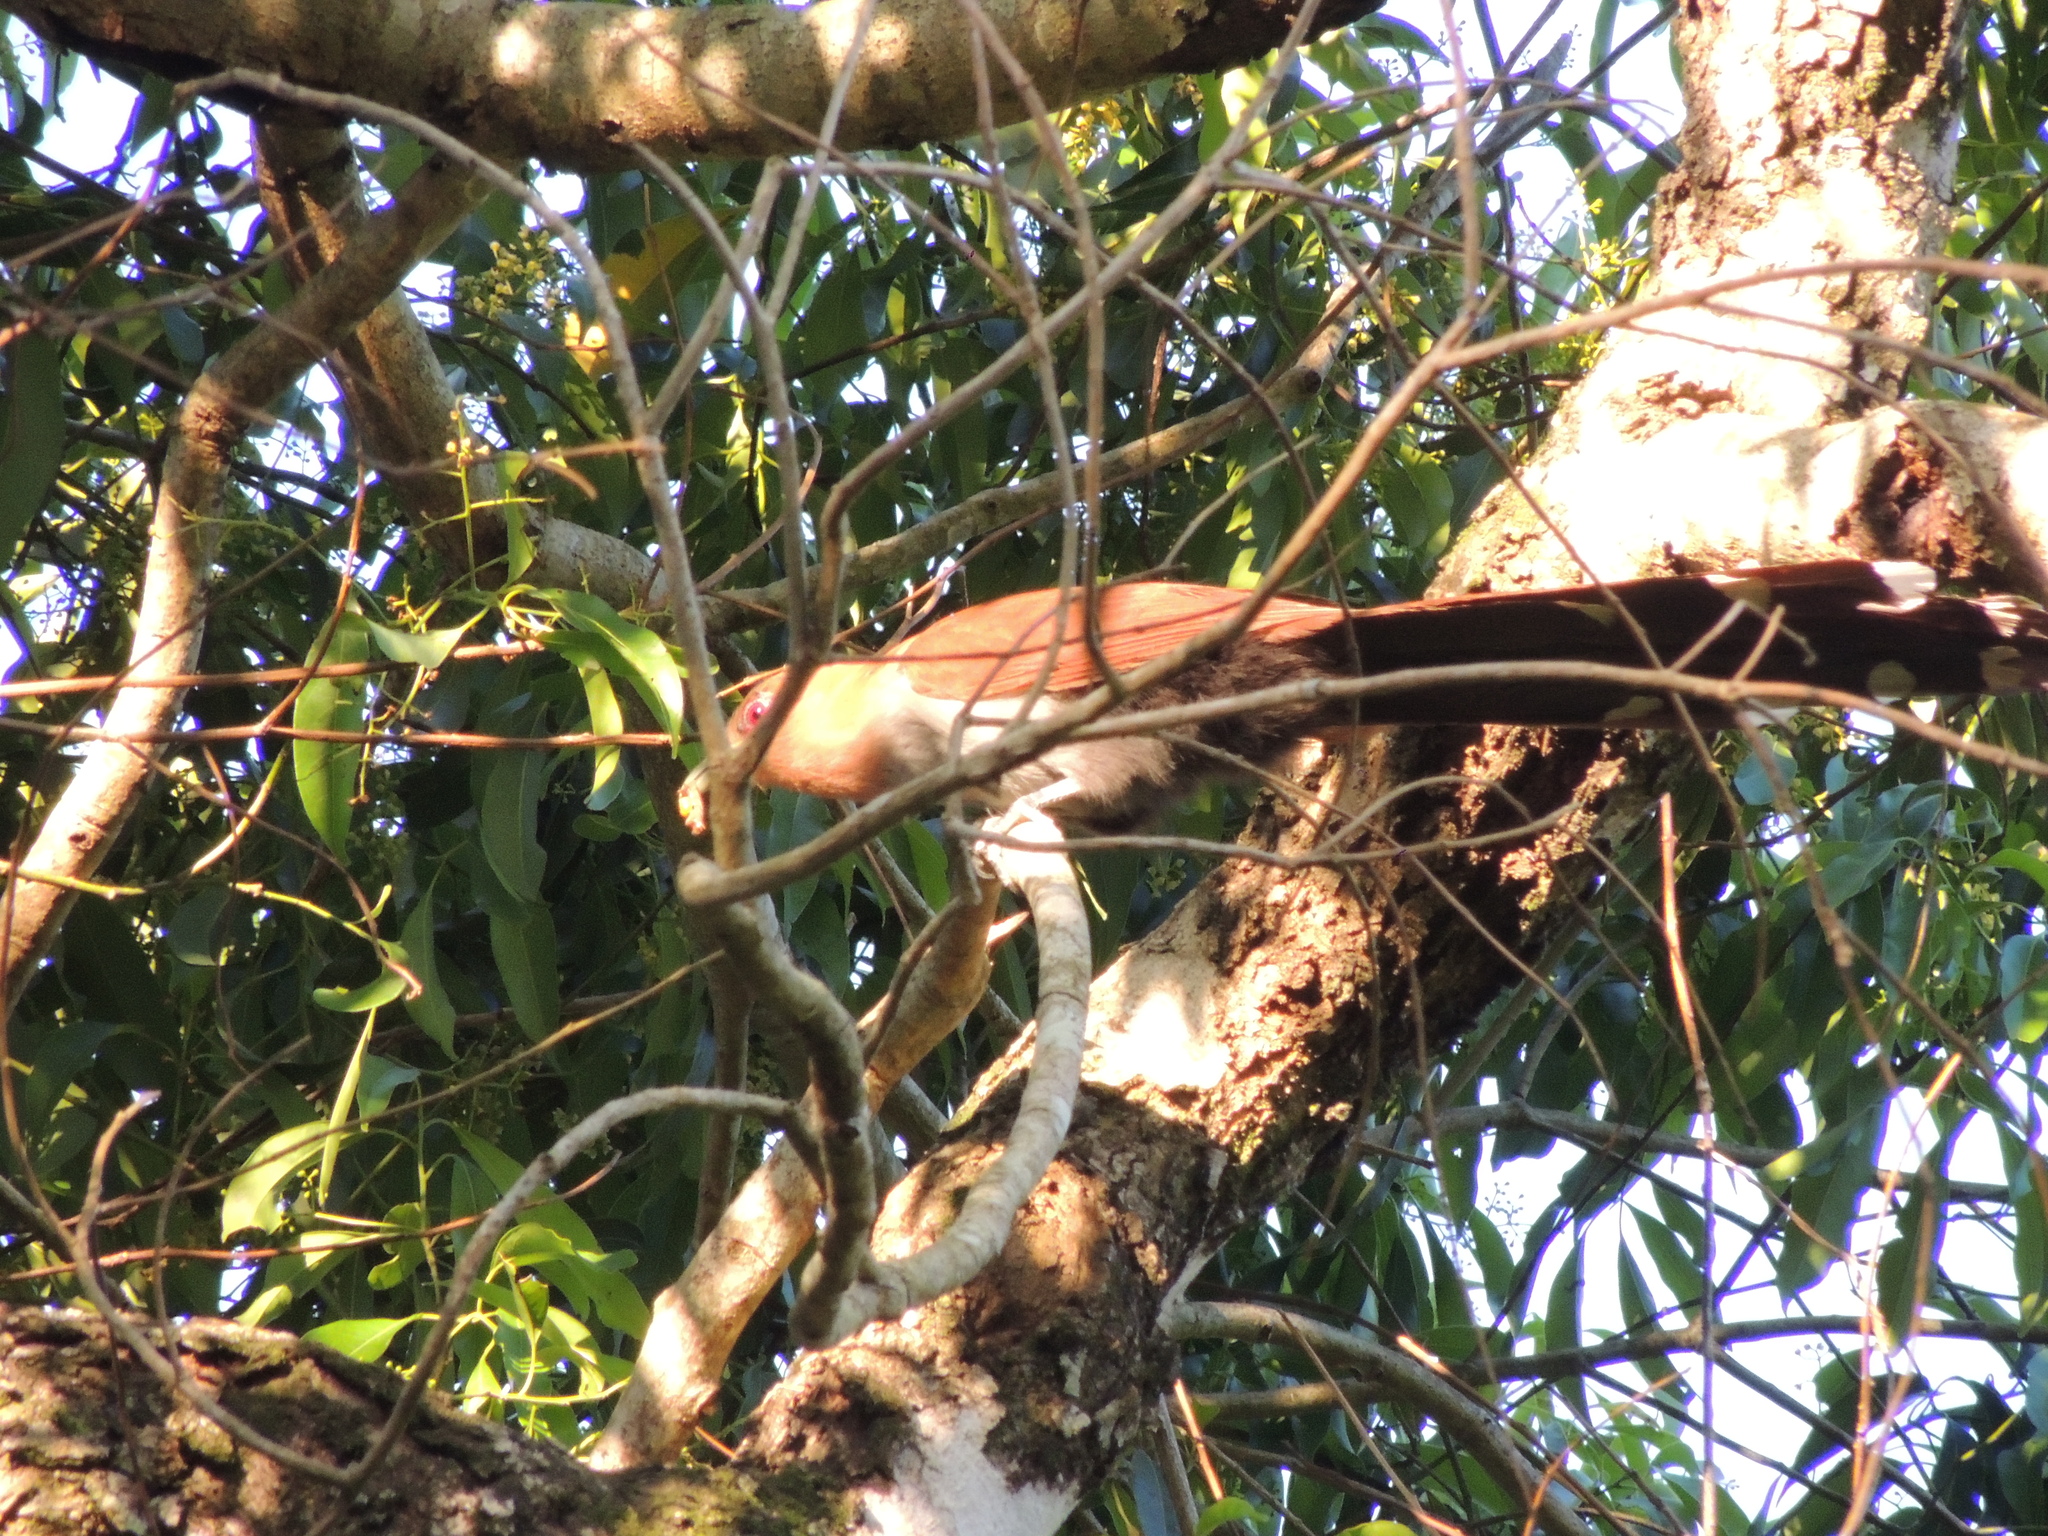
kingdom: Animalia
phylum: Chordata
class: Aves
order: Cuculiformes
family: Cuculidae
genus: Piaya
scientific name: Piaya cayana
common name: Squirrel cuckoo
